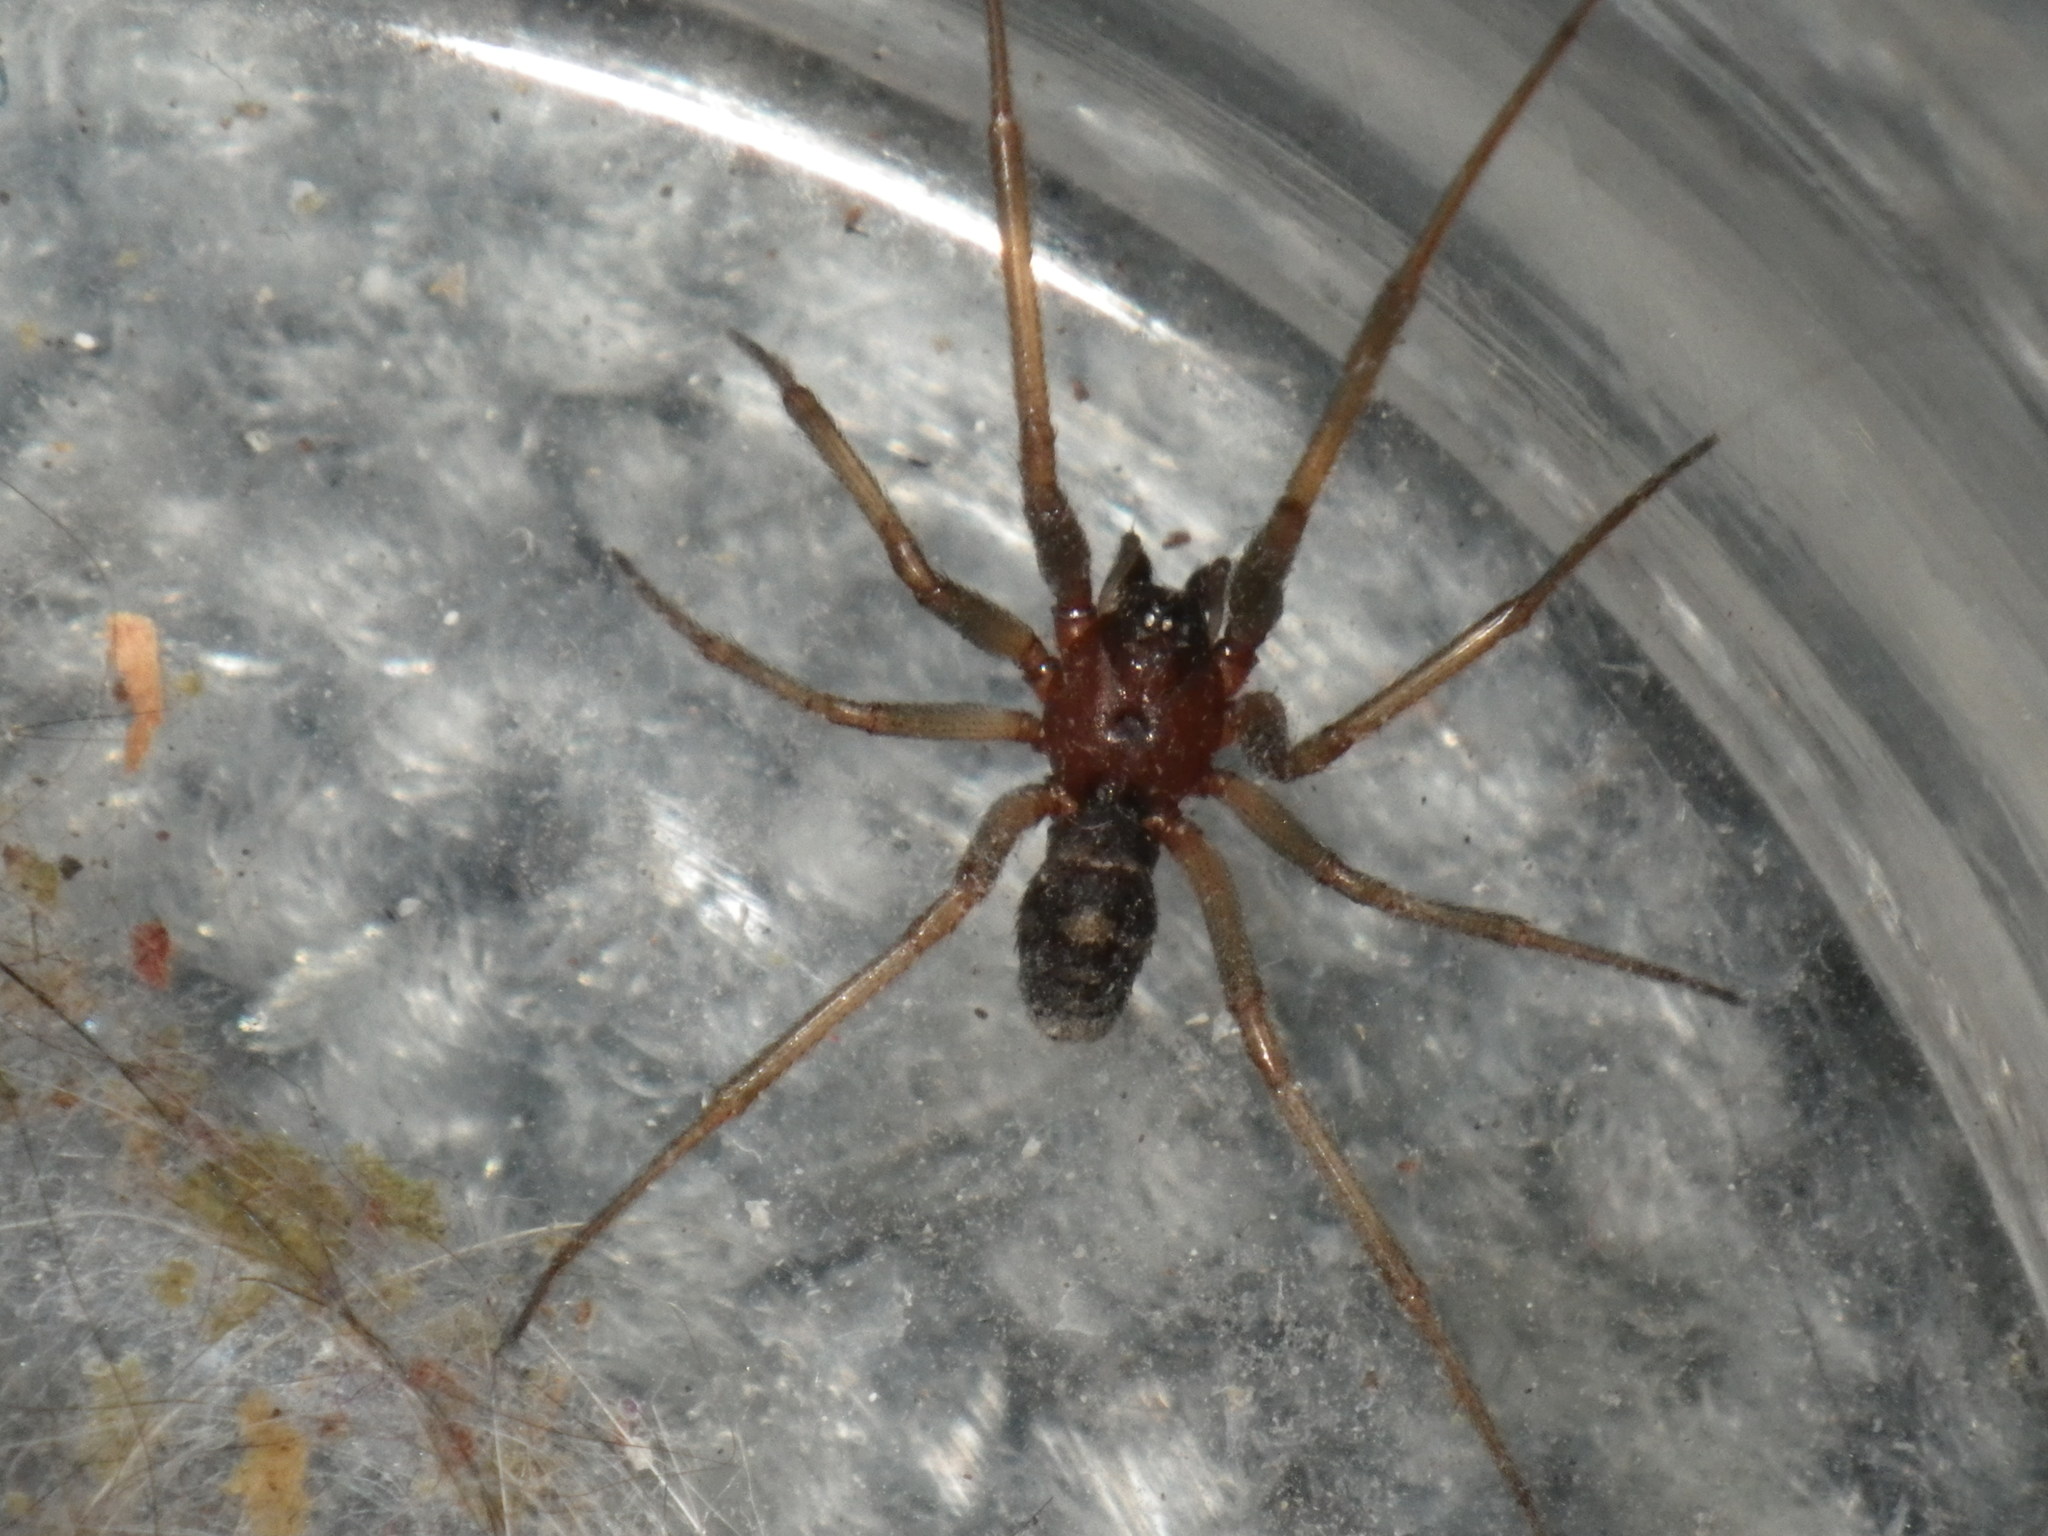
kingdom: Animalia
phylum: Arthropoda
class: Arachnida
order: Araneae
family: Theridiidae
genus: Steatoda
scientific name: Steatoda grossa
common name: False black widow
